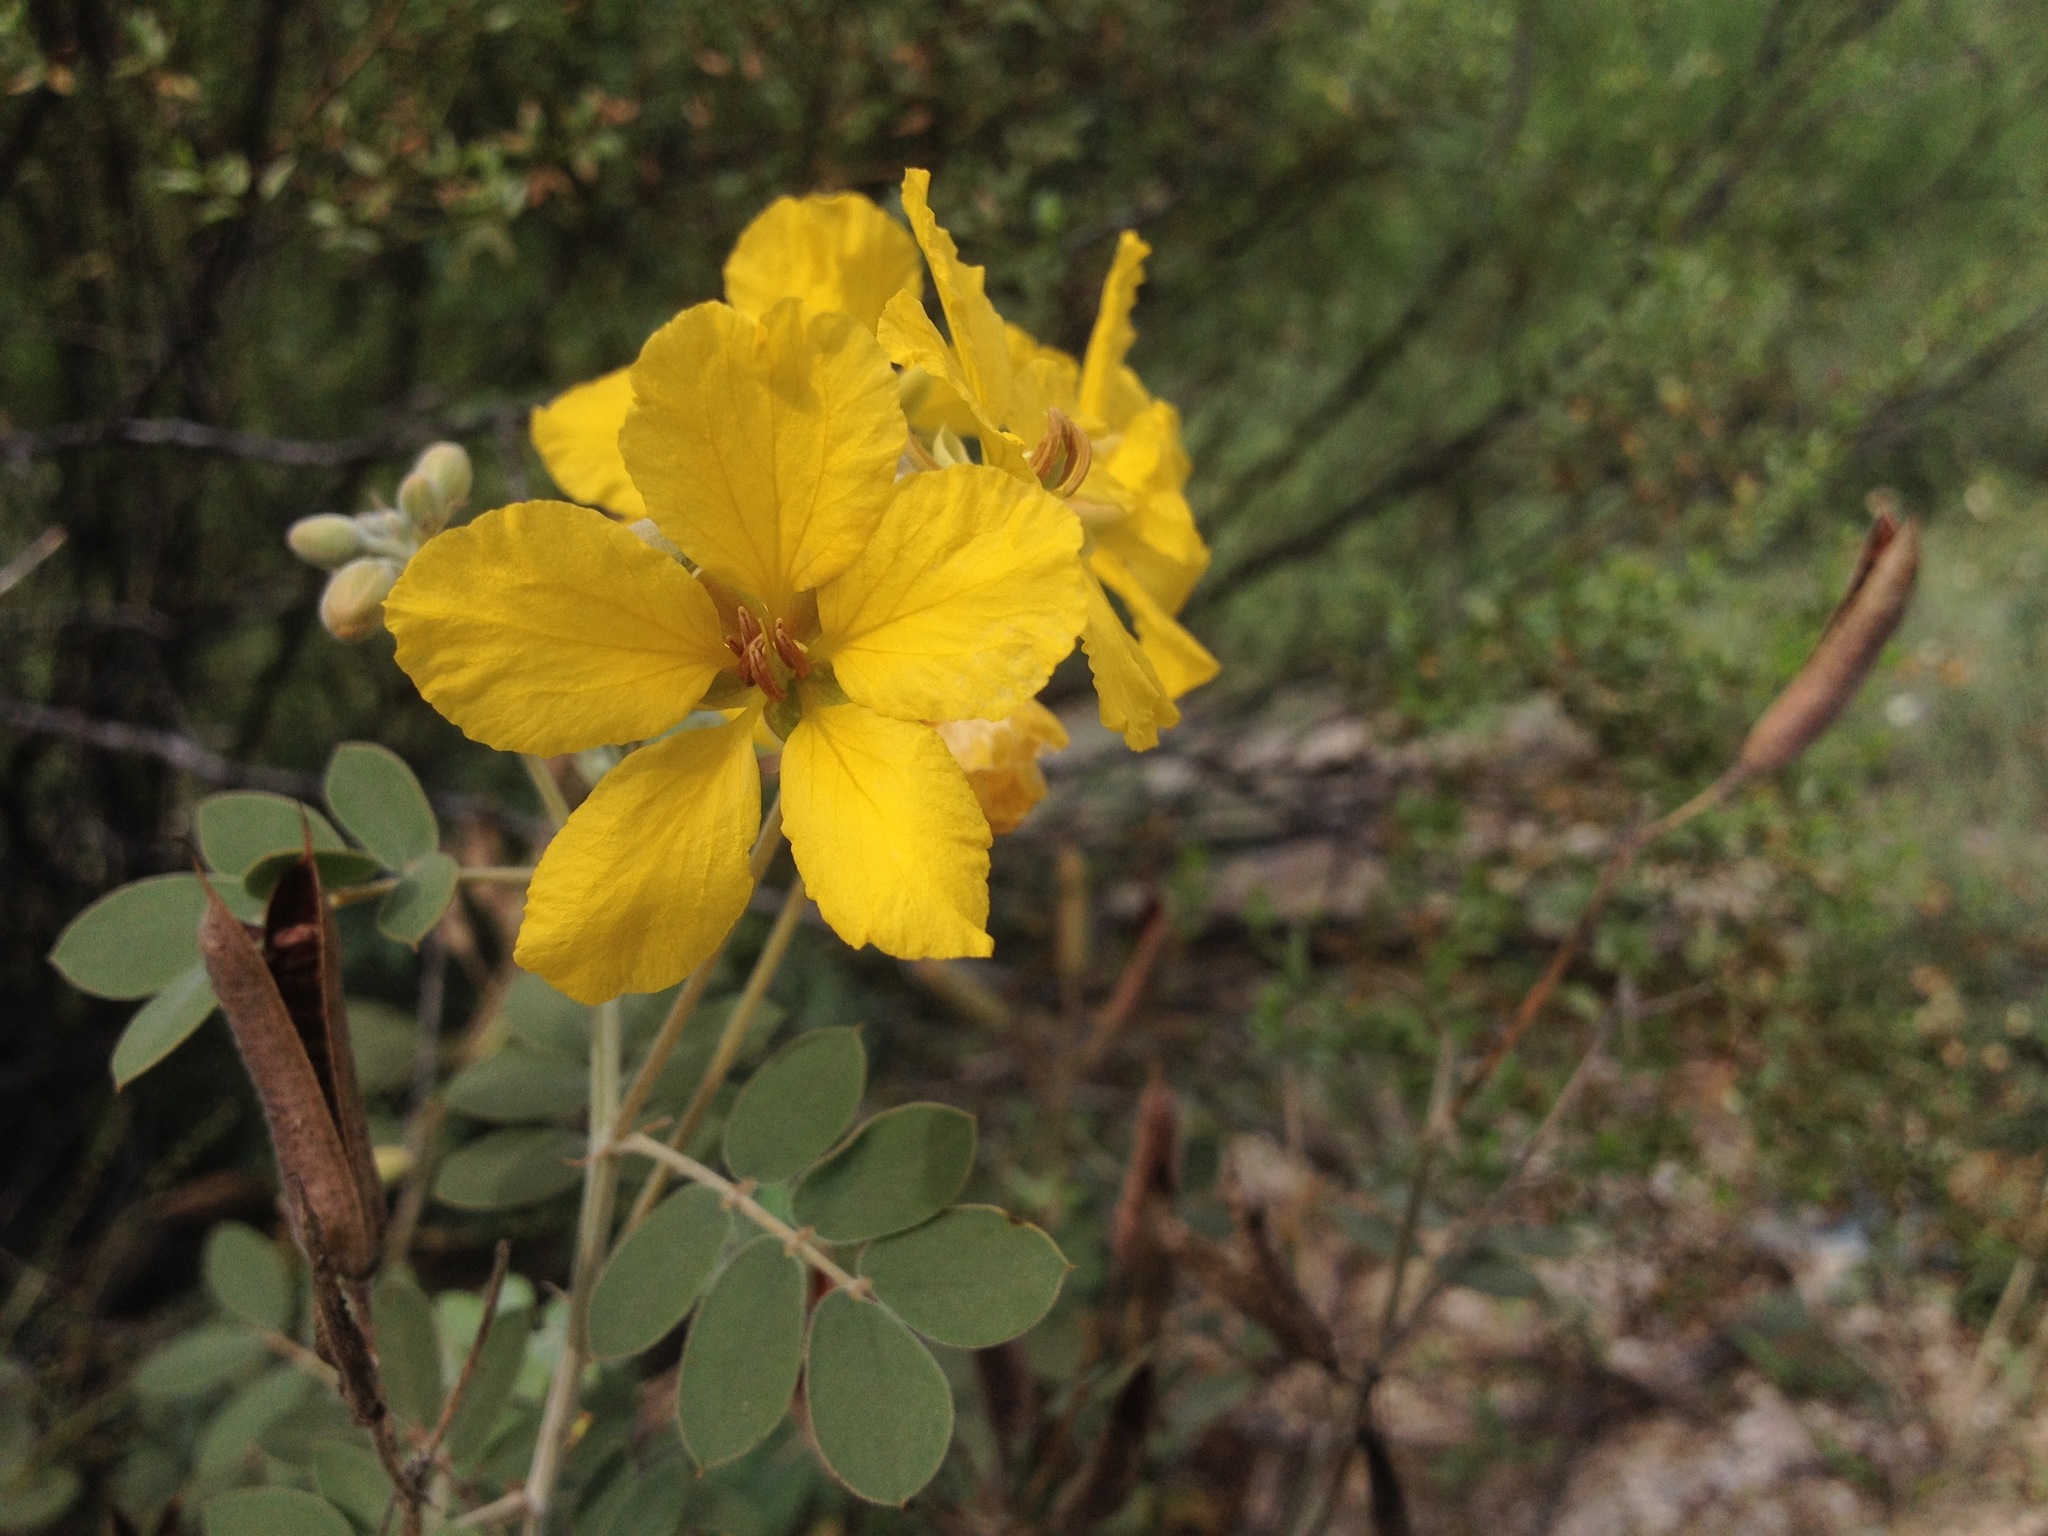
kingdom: Plantae
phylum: Tracheophyta
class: Magnoliopsida
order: Fabales
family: Fabaceae
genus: Senna
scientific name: Senna covesii
